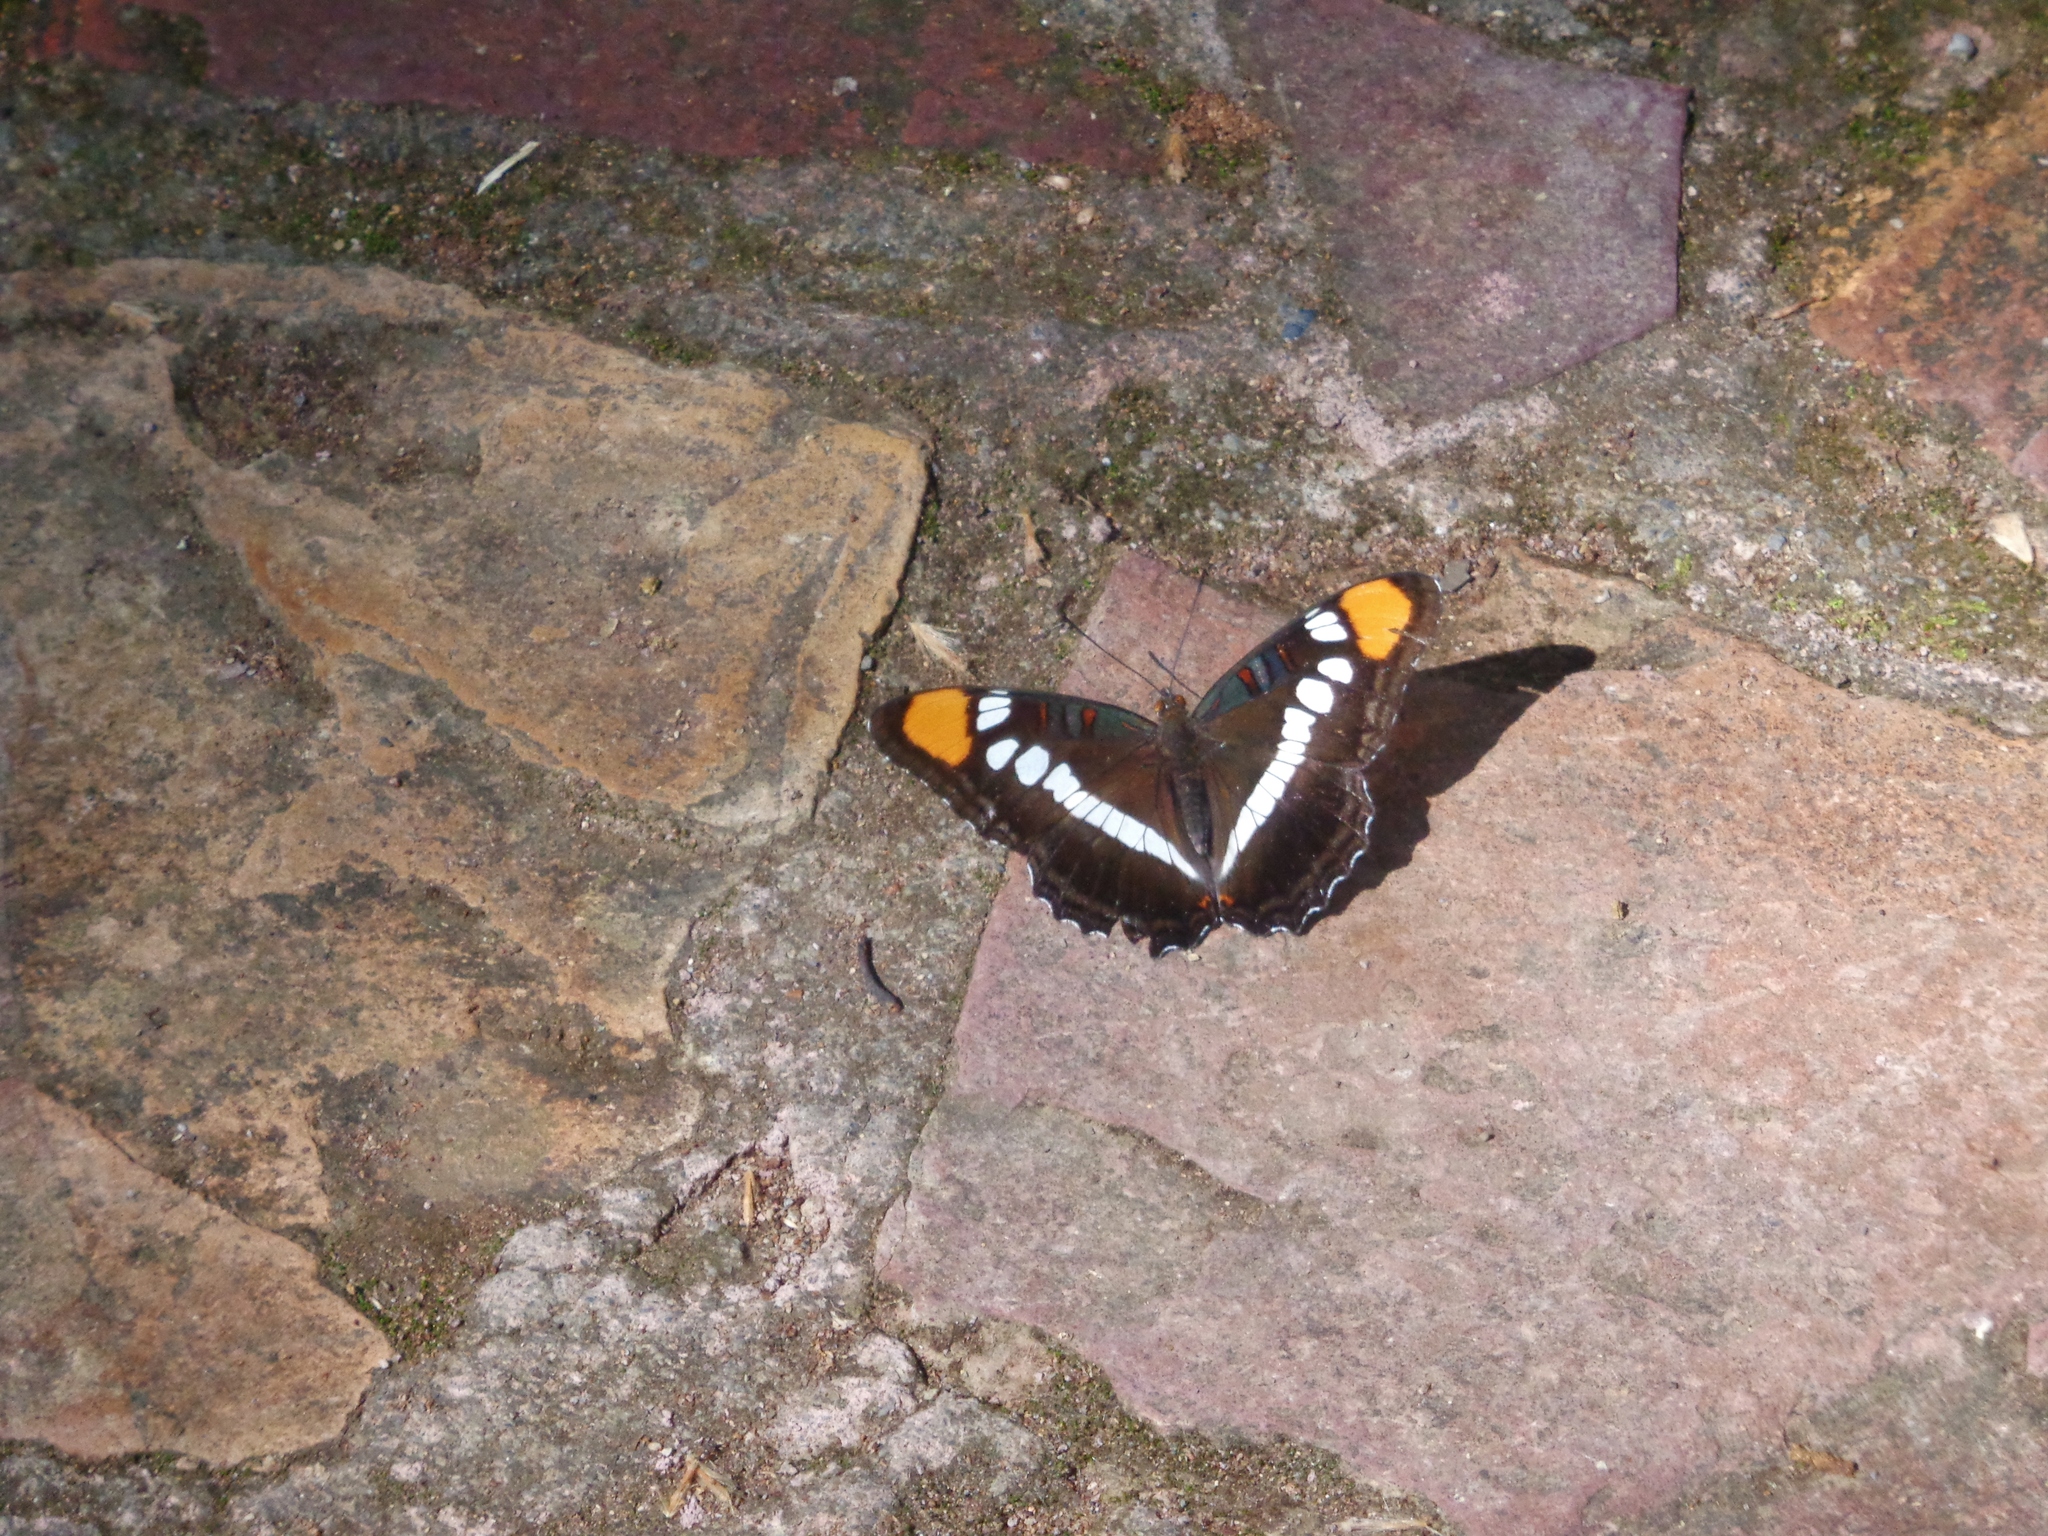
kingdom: Animalia
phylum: Arthropoda
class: Insecta
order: Lepidoptera
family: Nymphalidae
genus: Limenitis
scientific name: Limenitis bredowii
